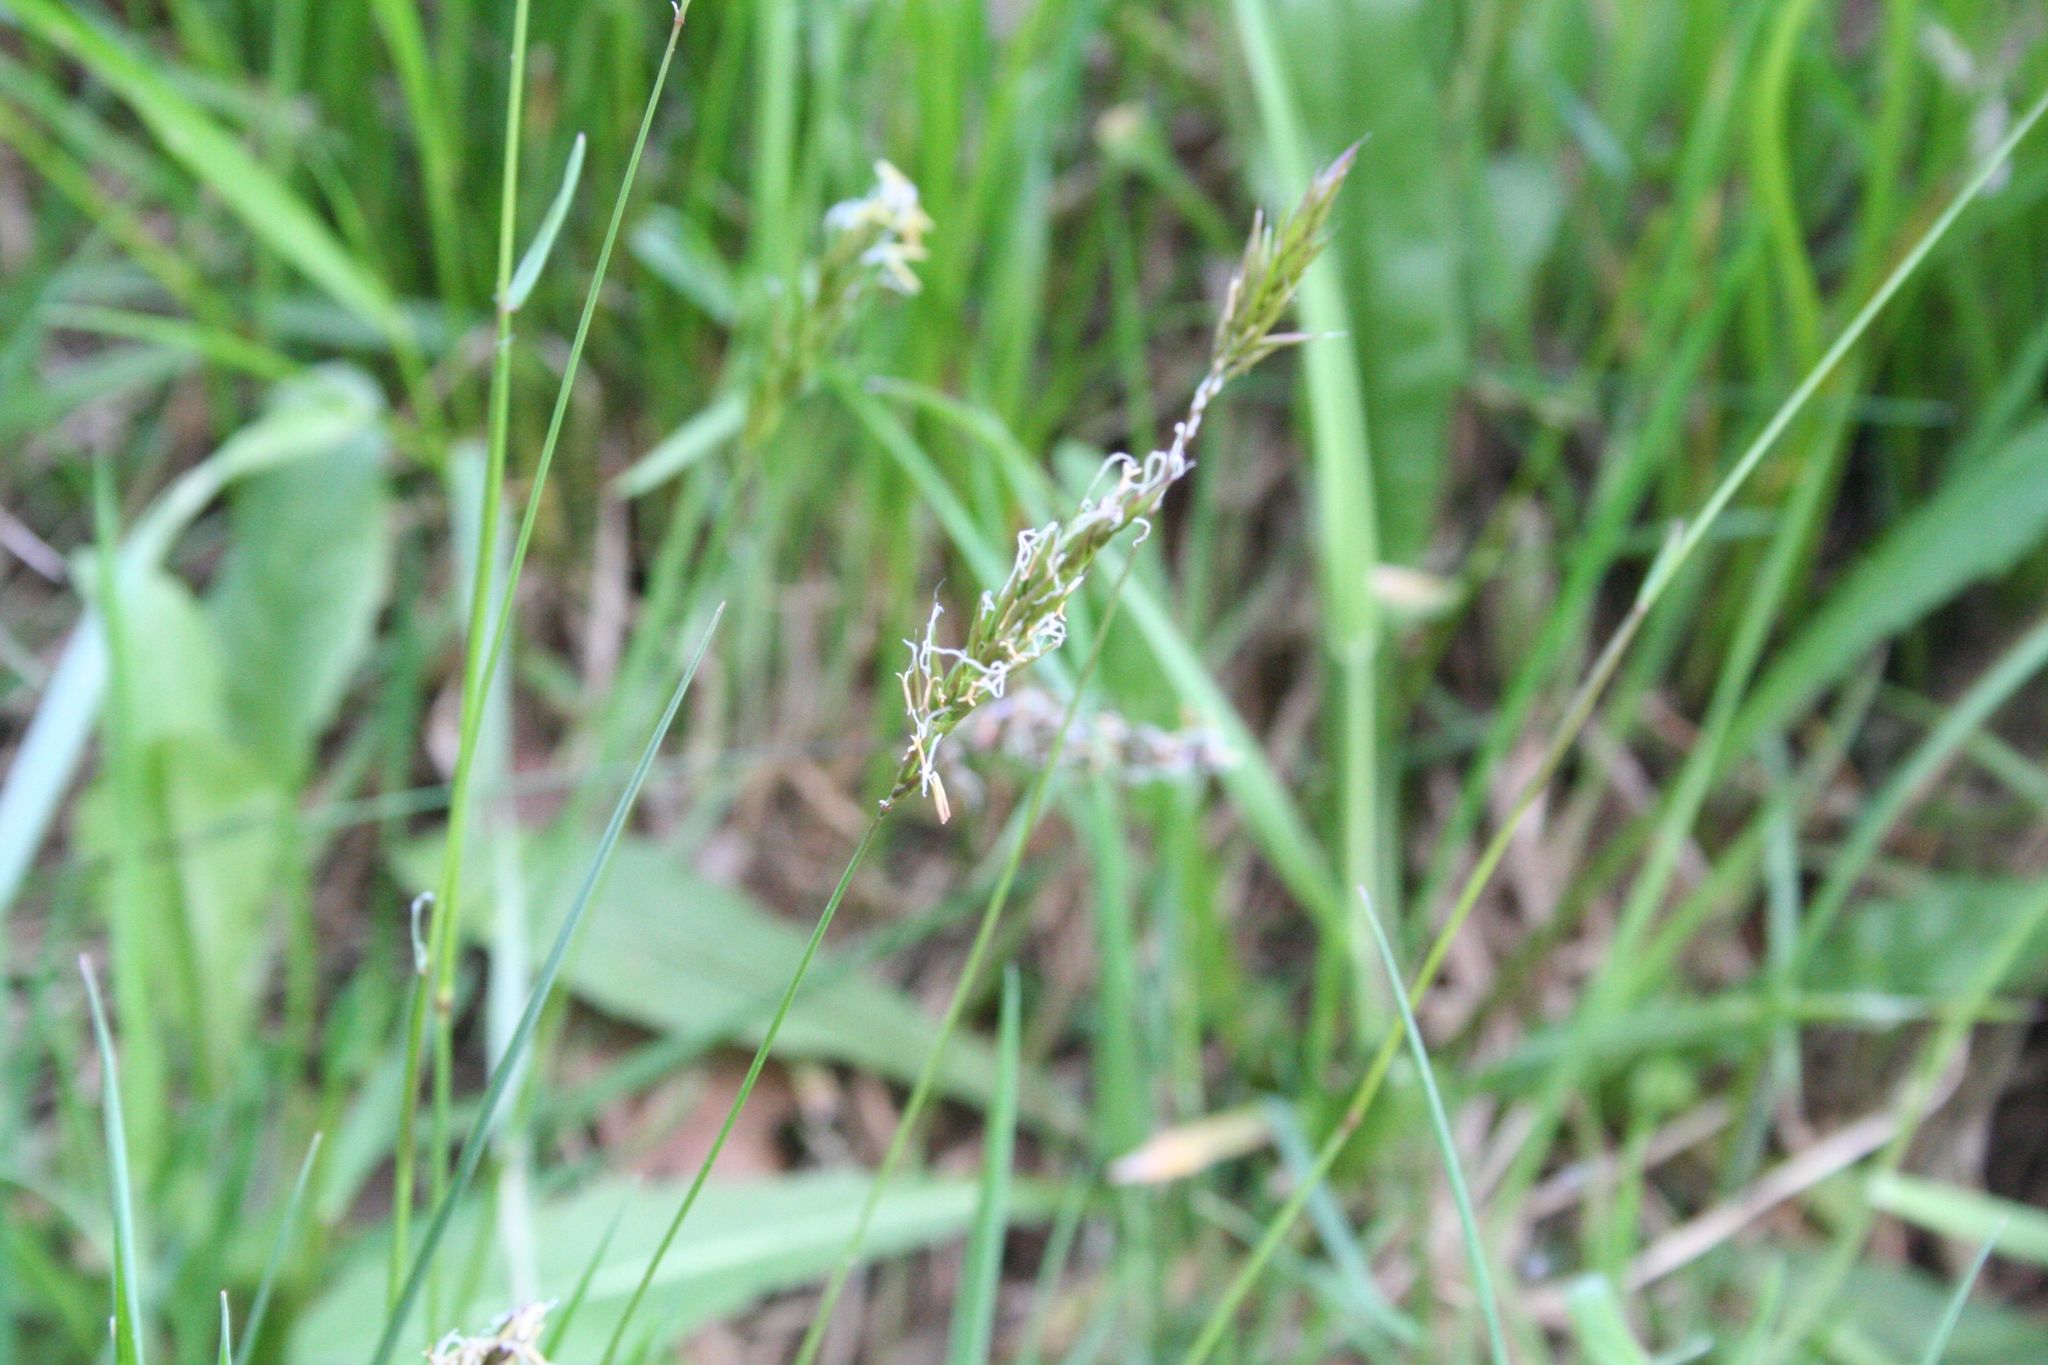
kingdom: Plantae
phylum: Tracheophyta
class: Liliopsida
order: Poales
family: Poaceae
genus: Anthoxanthum
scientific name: Anthoxanthum odoratum
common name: Sweet vernalgrass
